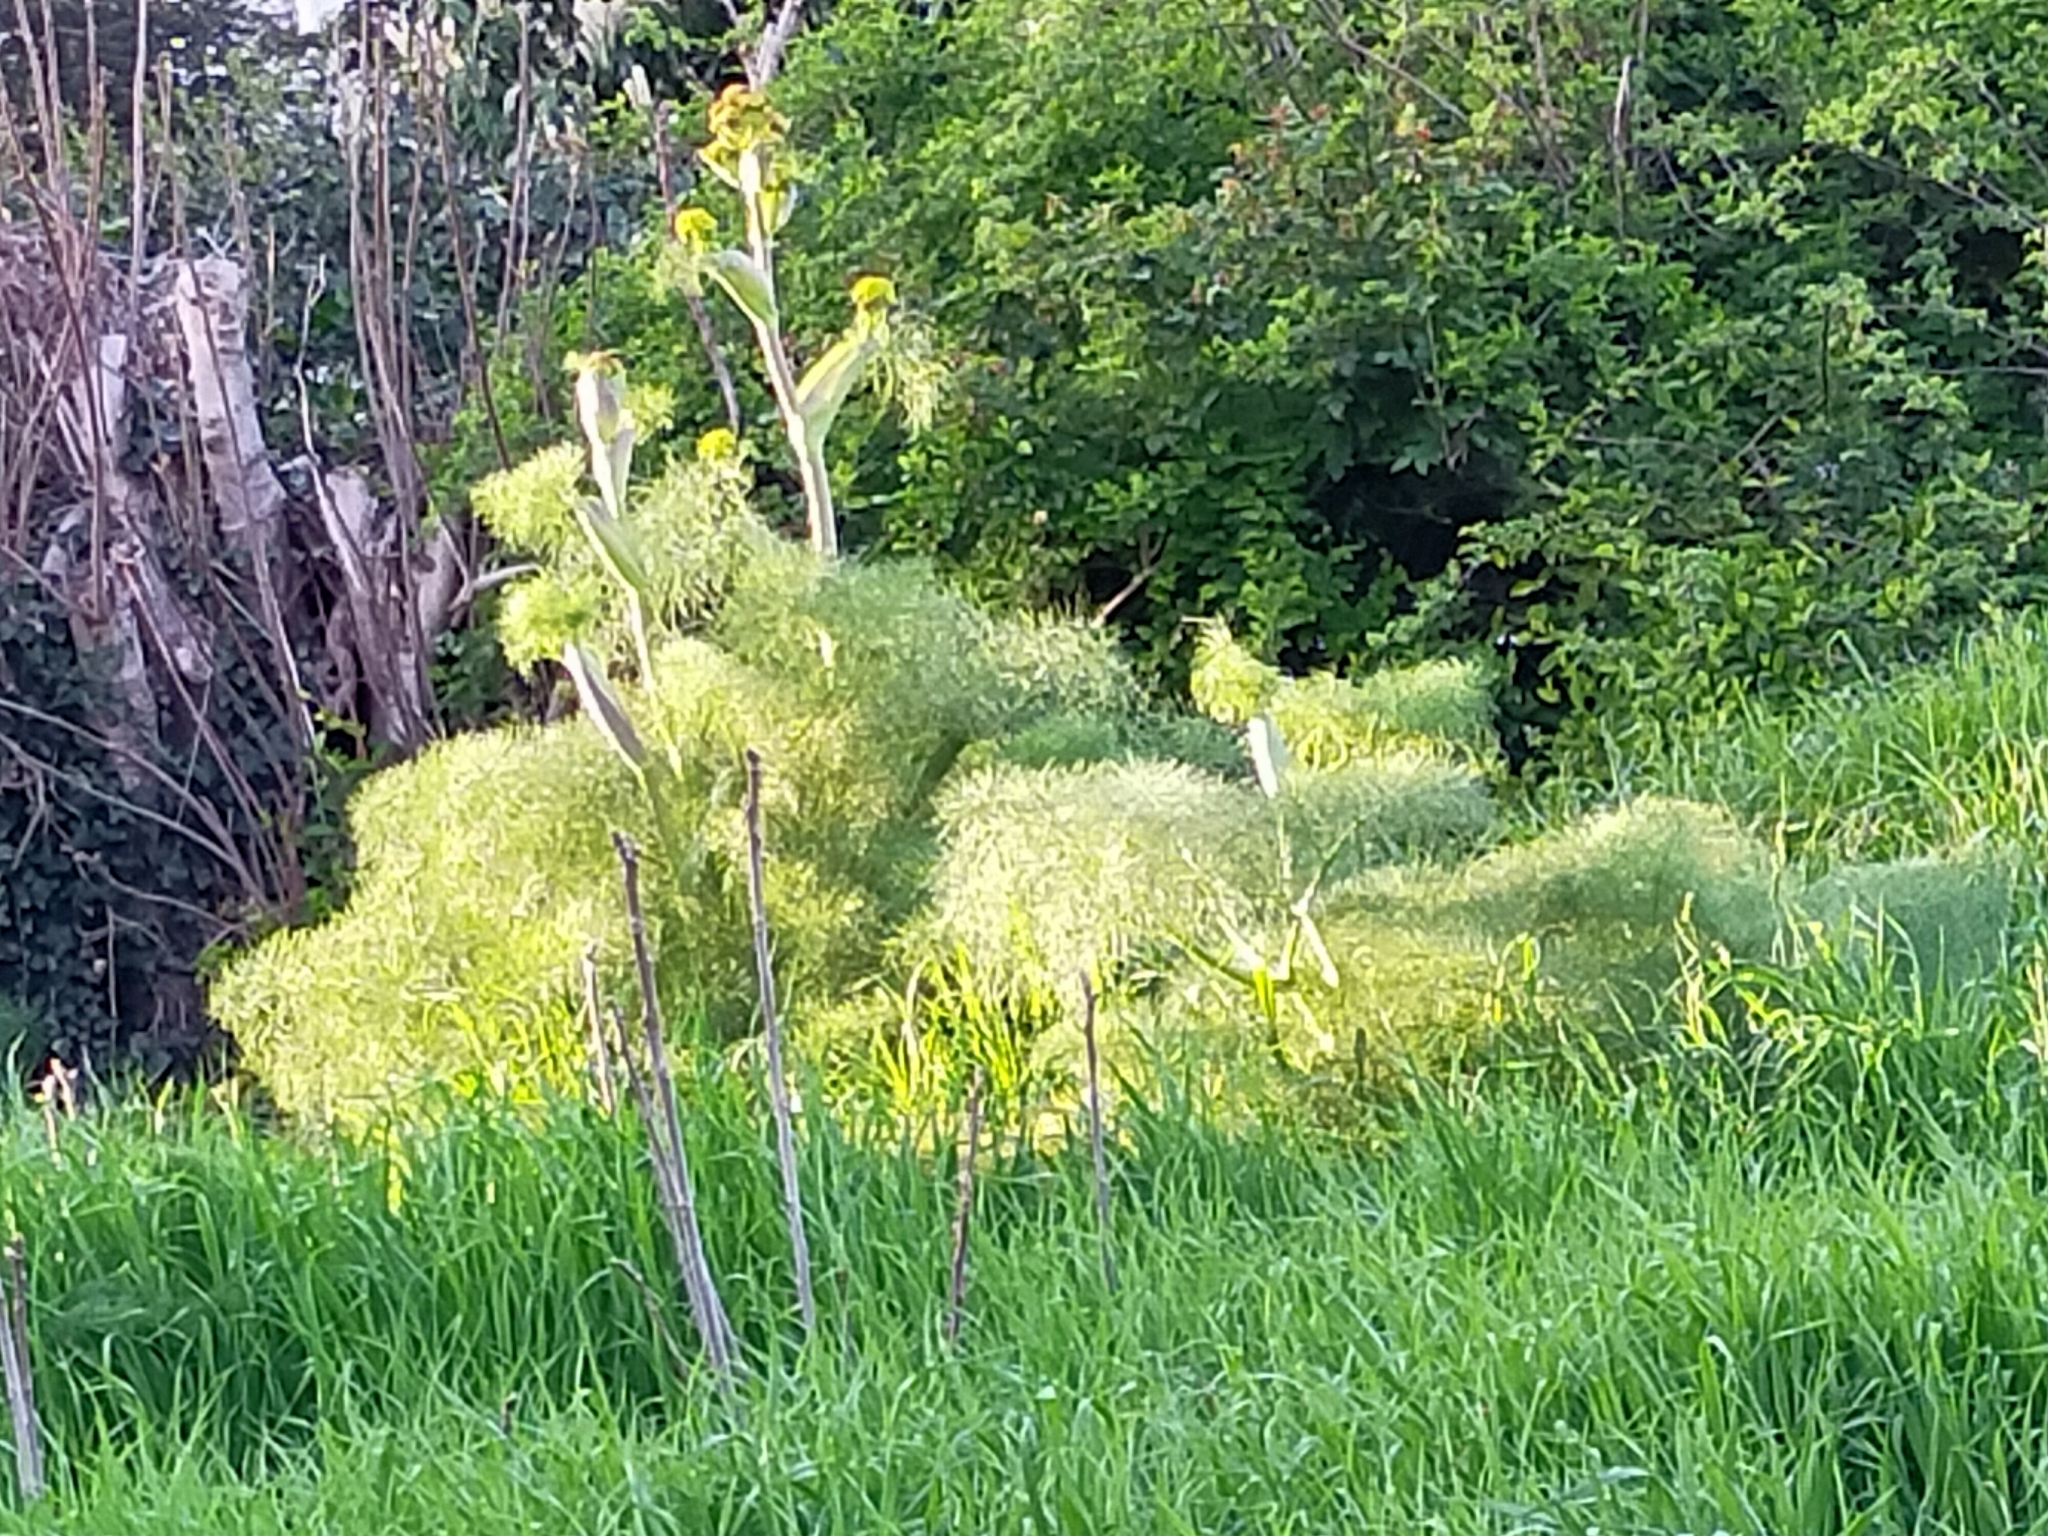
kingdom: Plantae
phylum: Tracheophyta
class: Magnoliopsida
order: Apiales
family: Apiaceae
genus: Ferula
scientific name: Ferula communis
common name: Giant fennel
